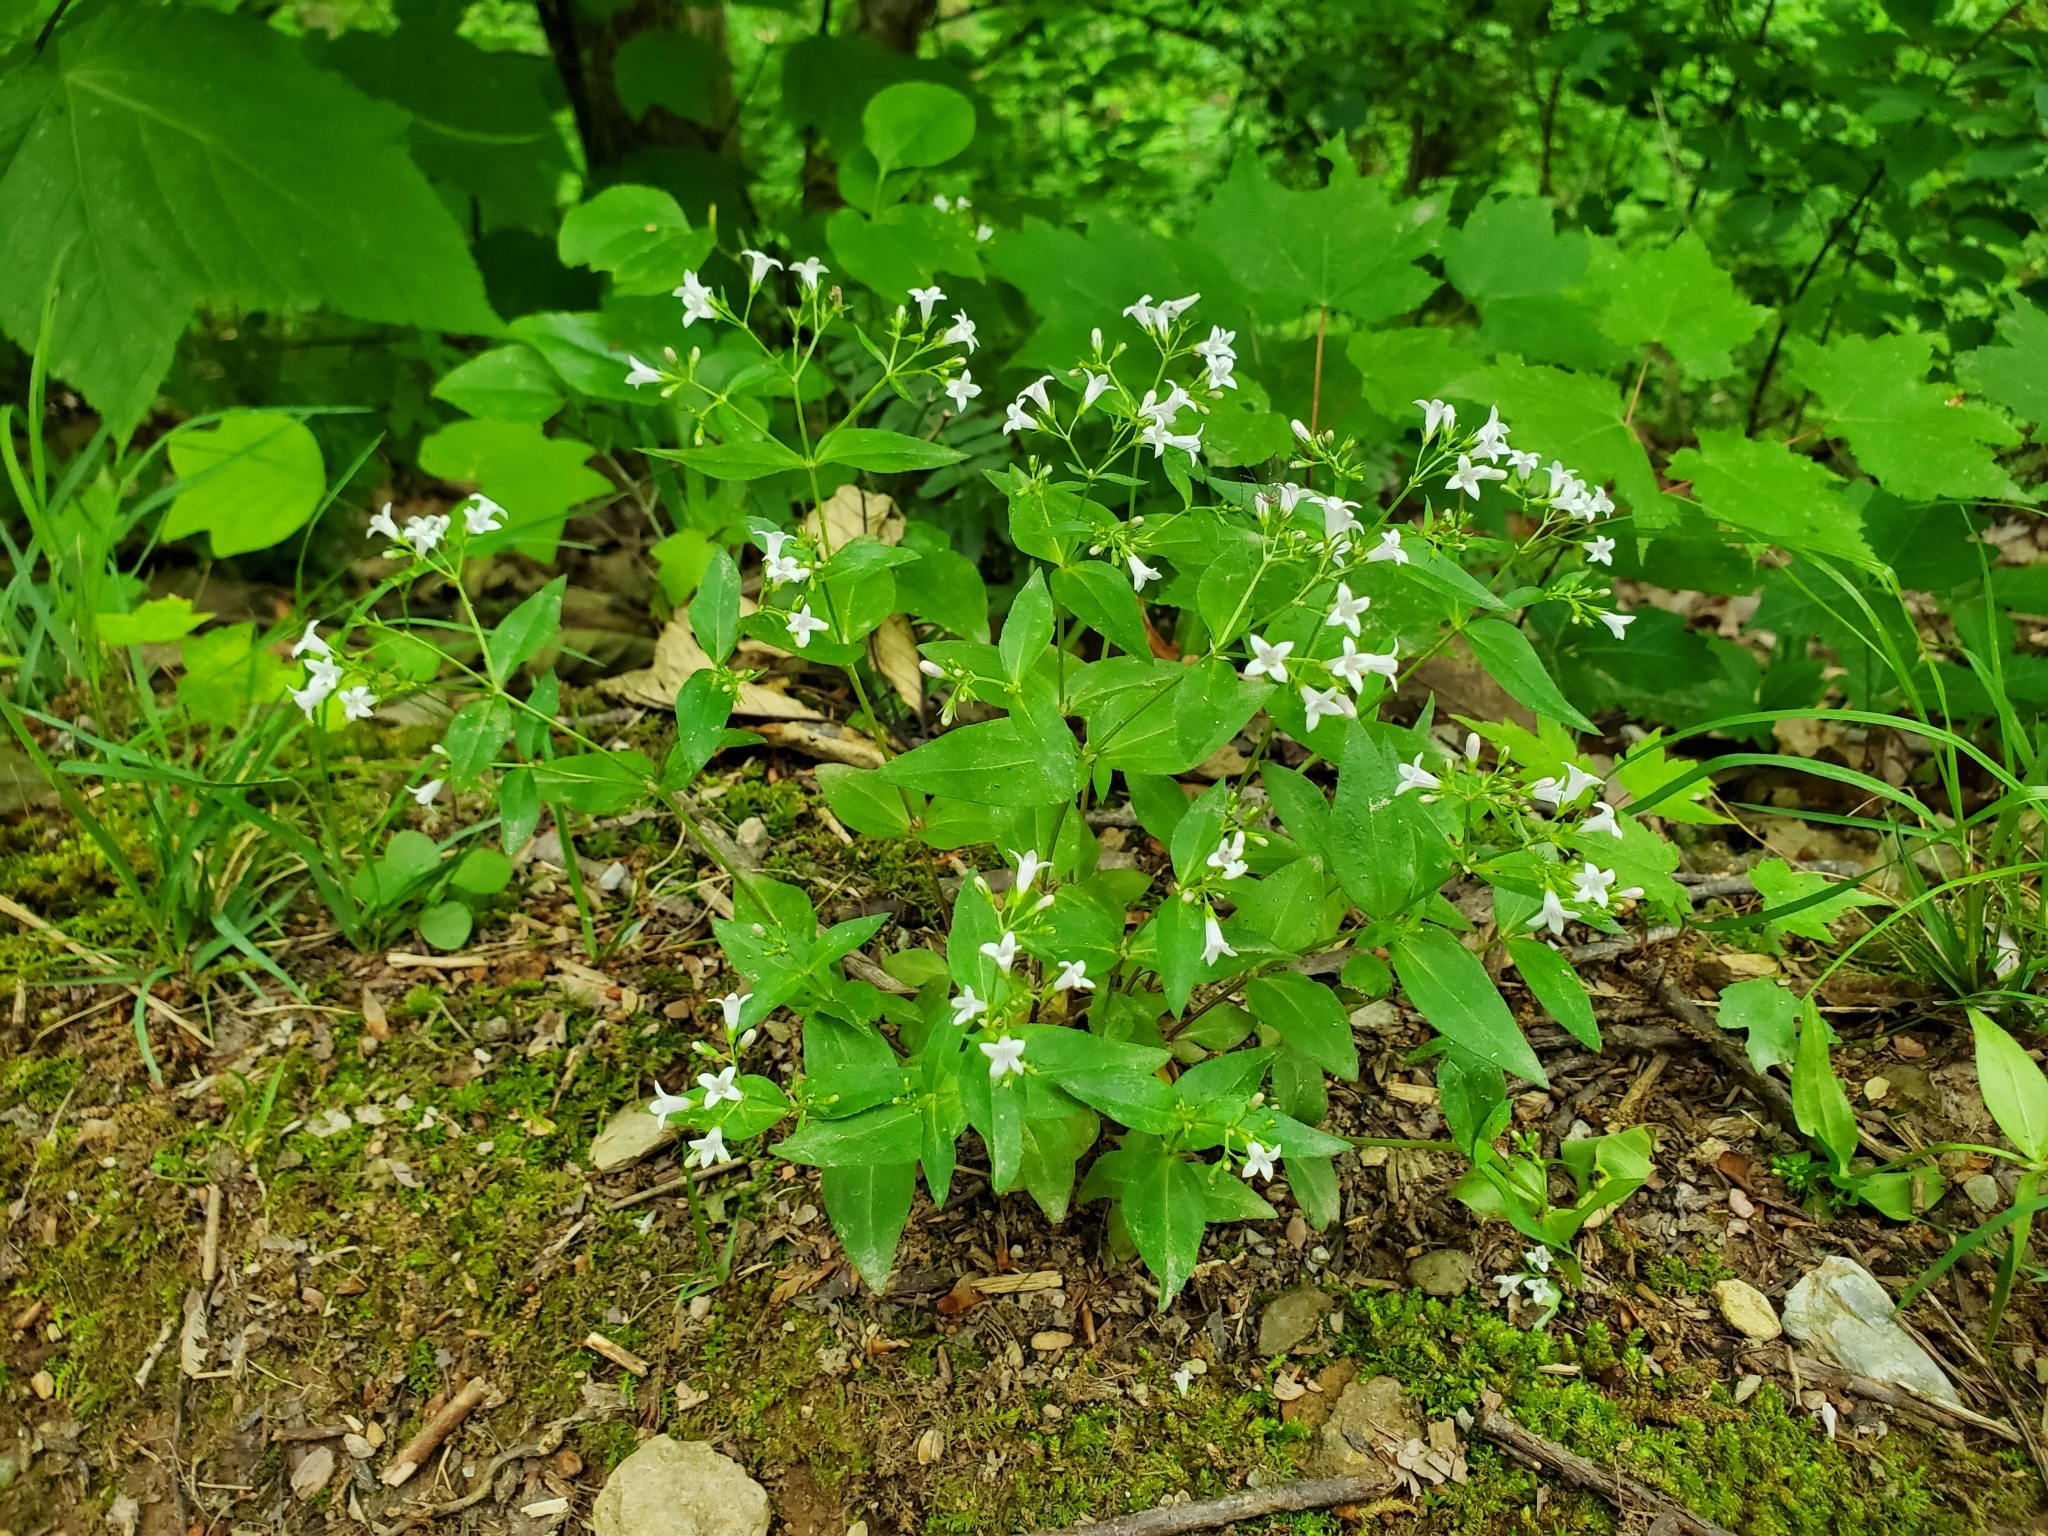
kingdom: Plantae
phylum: Tracheophyta
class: Magnoliopsida
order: Gentianales
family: Rubiaceae
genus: Houstonia
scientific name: Houstonia purpurea
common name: Summer bluet
